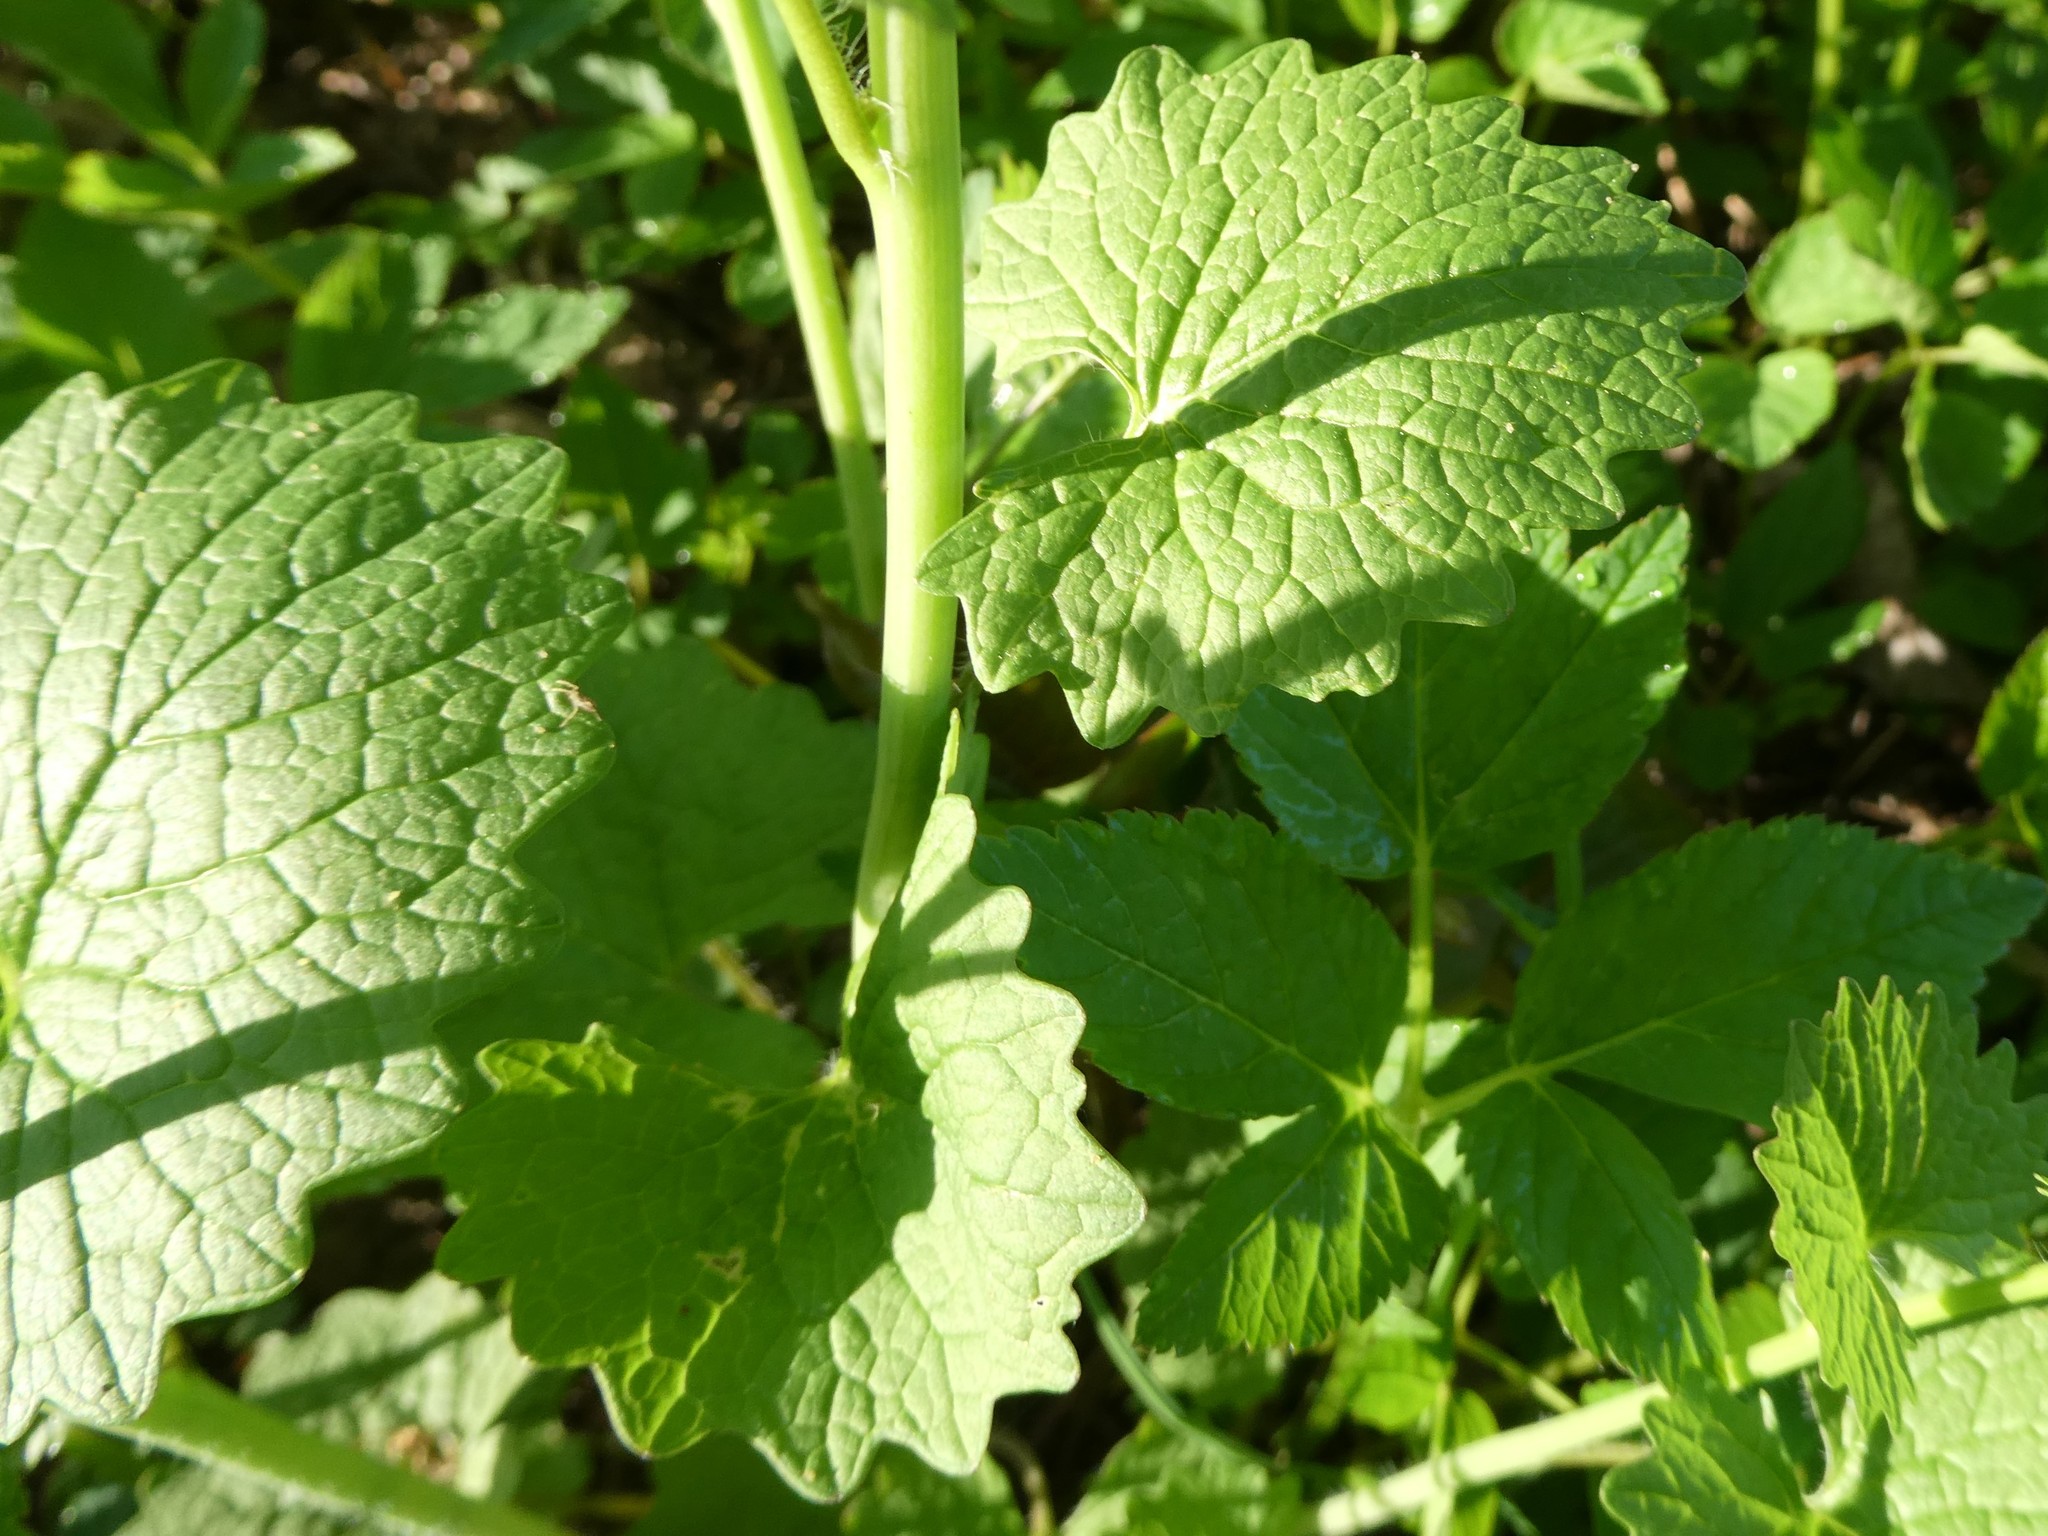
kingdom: Plantae
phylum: Tracheophyta
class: Magnoliopsida
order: Brassicales
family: Brassicaceae
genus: Alliaria
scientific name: Alliaria petiolata
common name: Garlic mustard
